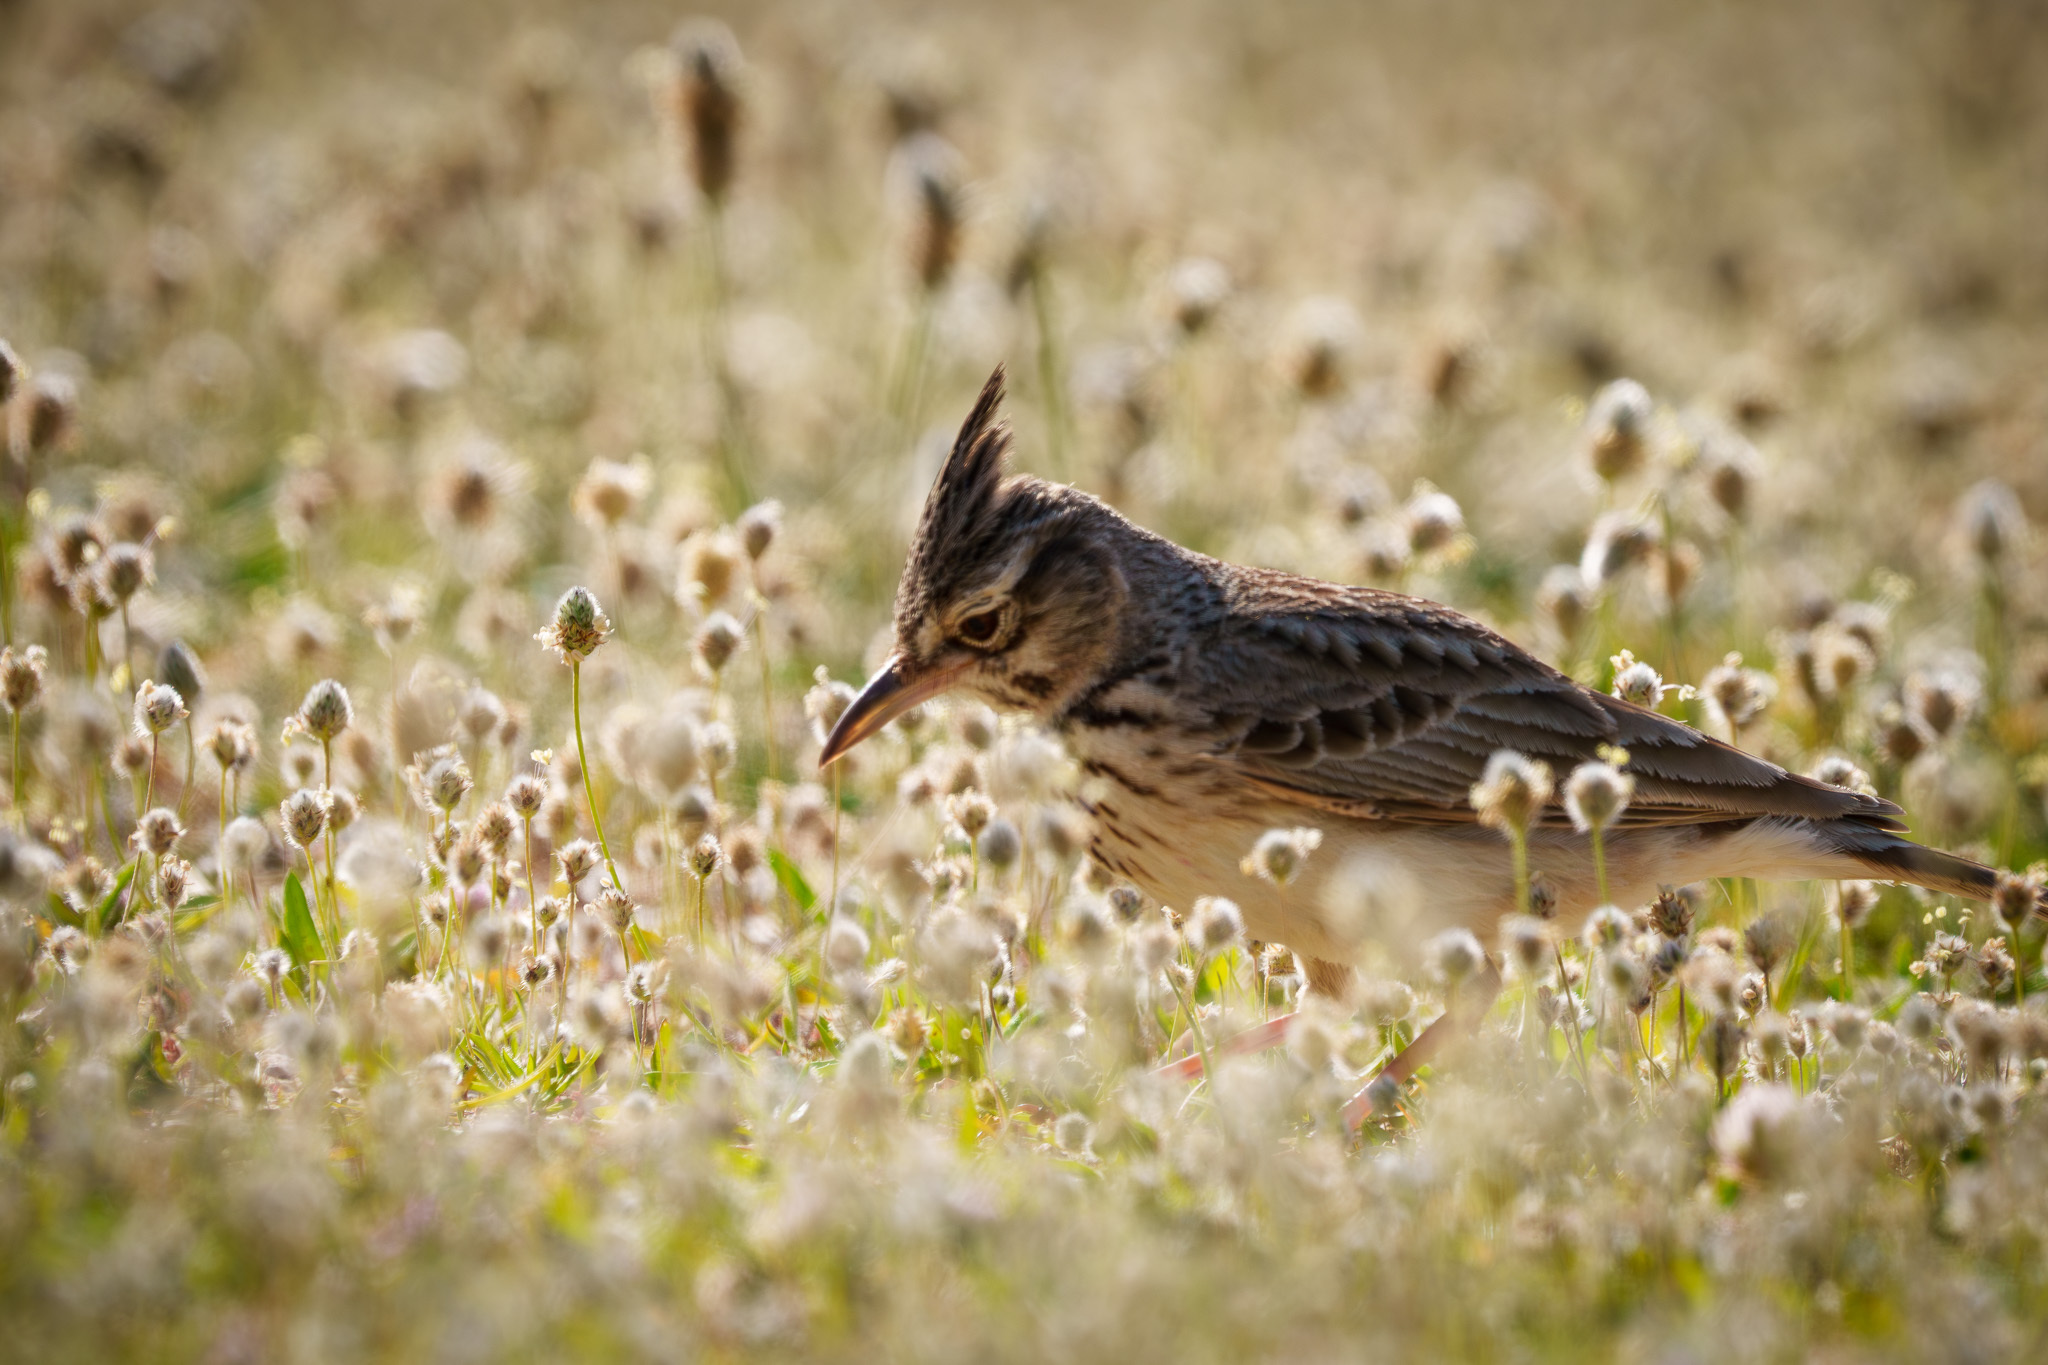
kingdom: Animalia
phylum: Chordata
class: Aves
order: Passeriformes
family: Alaudidae
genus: Galerida
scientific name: Galerida cristata
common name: Crested lark
